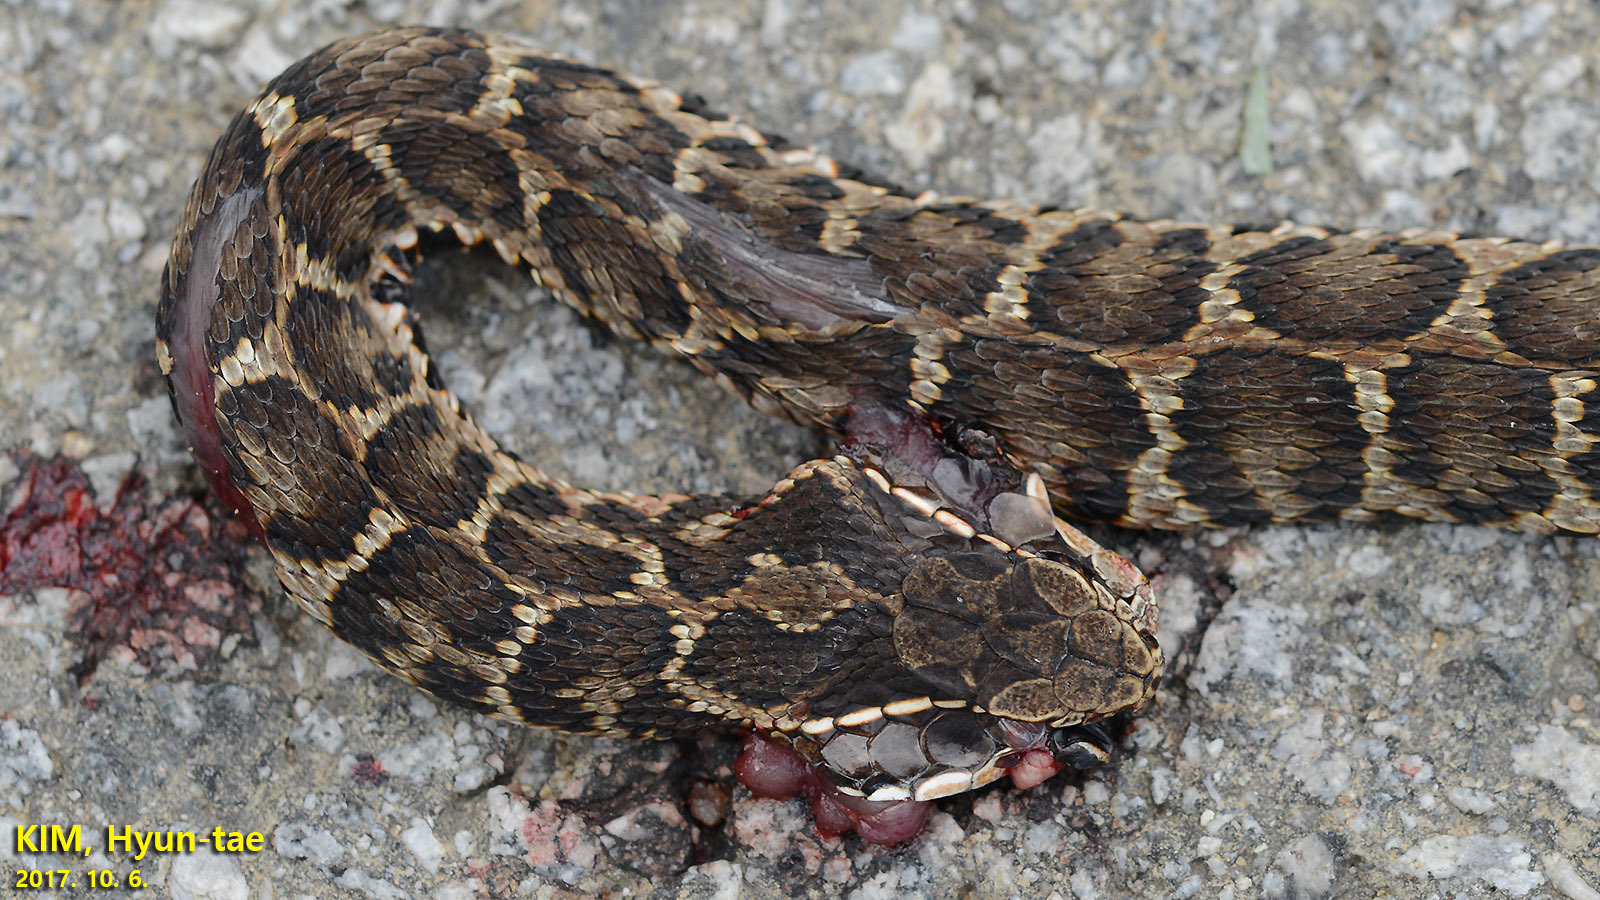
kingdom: Animalia
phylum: Chordata
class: Squamata
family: Viperidae
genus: Gloydius
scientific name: Gloydius brevicauda
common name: Short-tailed mamushi
